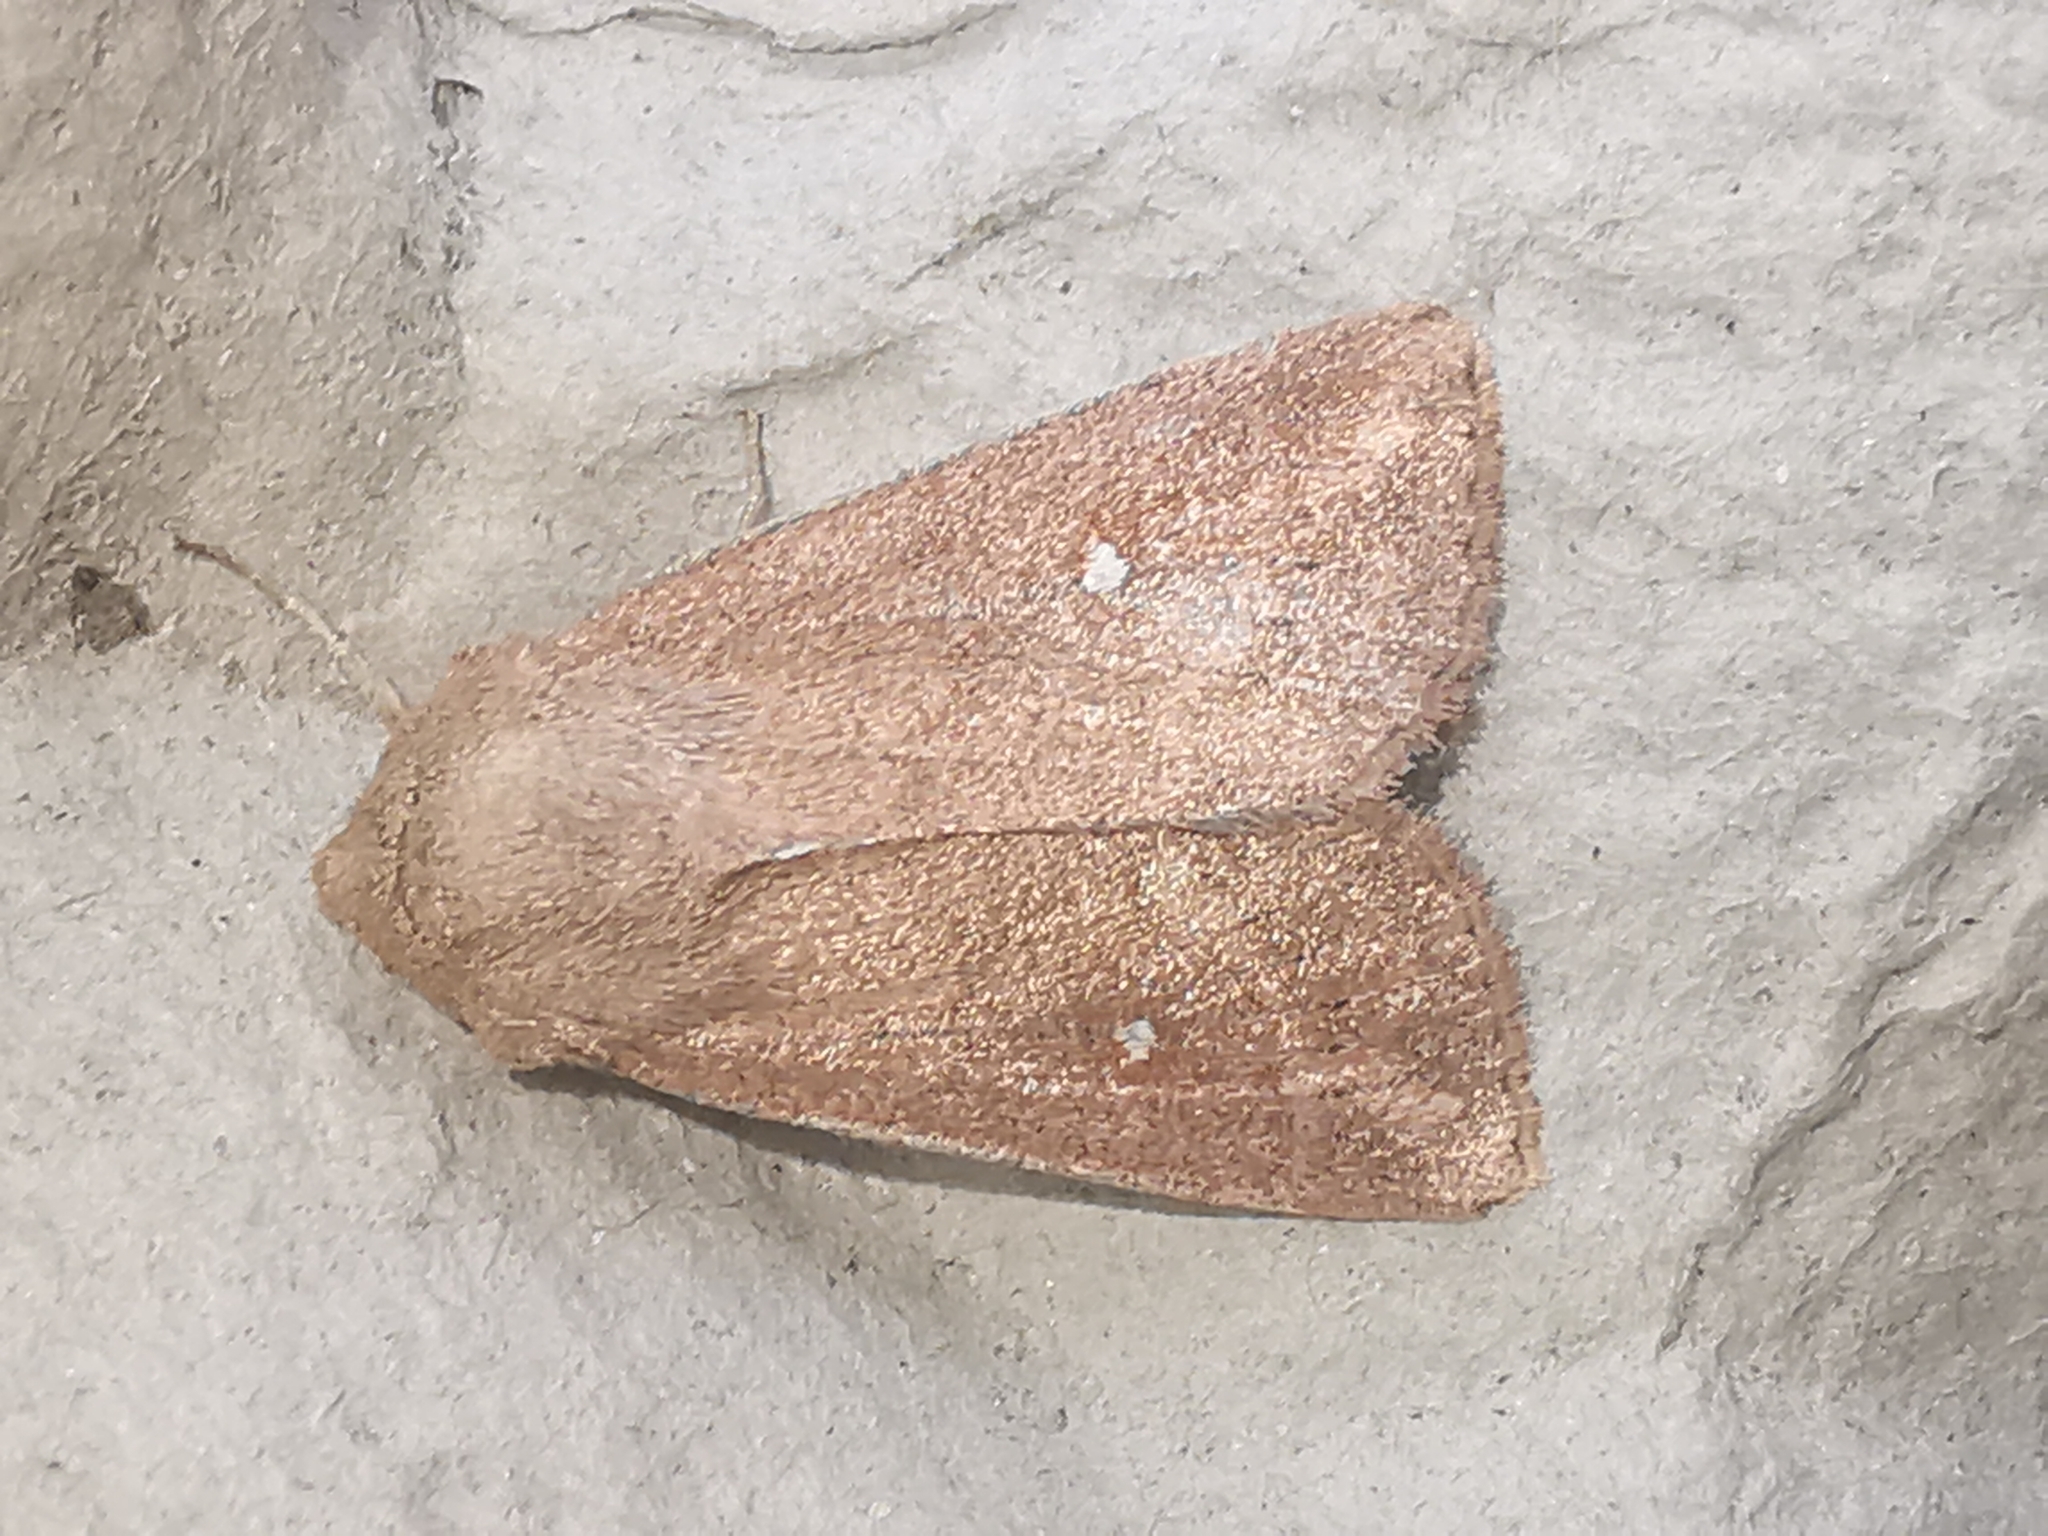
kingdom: Animalia
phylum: Arthropoda
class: Insecta
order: Lepidoptera
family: Noctuidae
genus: Mythimna
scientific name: Mythimna albipuncta
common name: White-point
